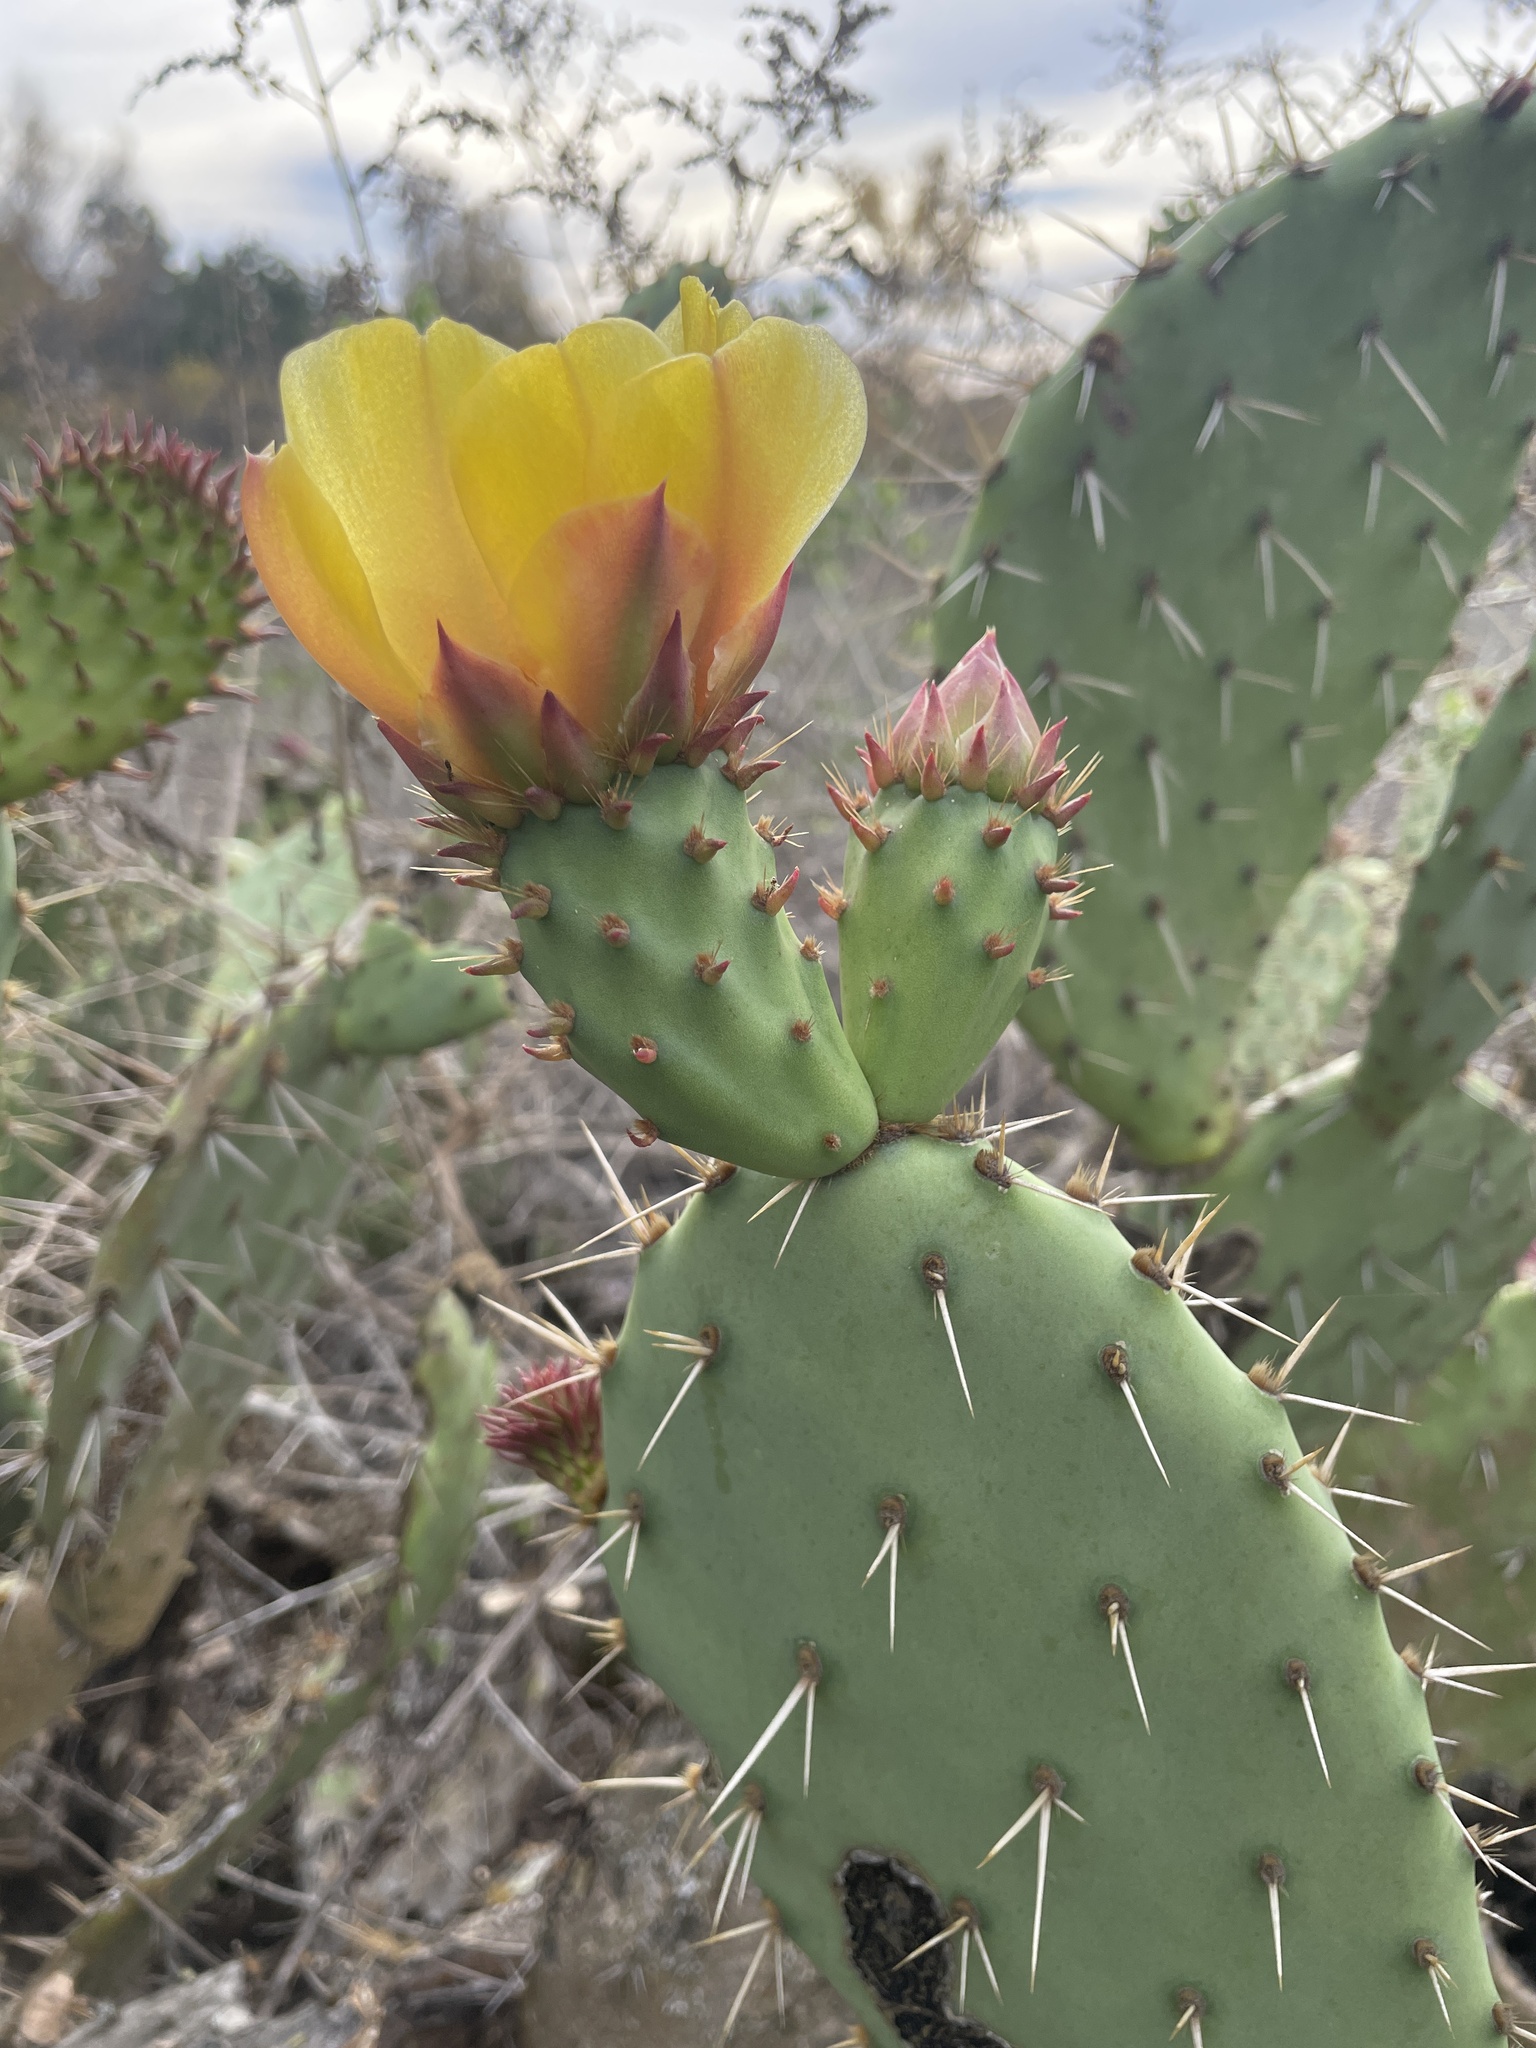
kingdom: Plantae
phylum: Tracheophyta
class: Magnoliopsida
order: Caryophyllales
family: Cactaceae
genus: Opuntia
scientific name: Opuntia littoralis
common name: Coastal prickly-pear
